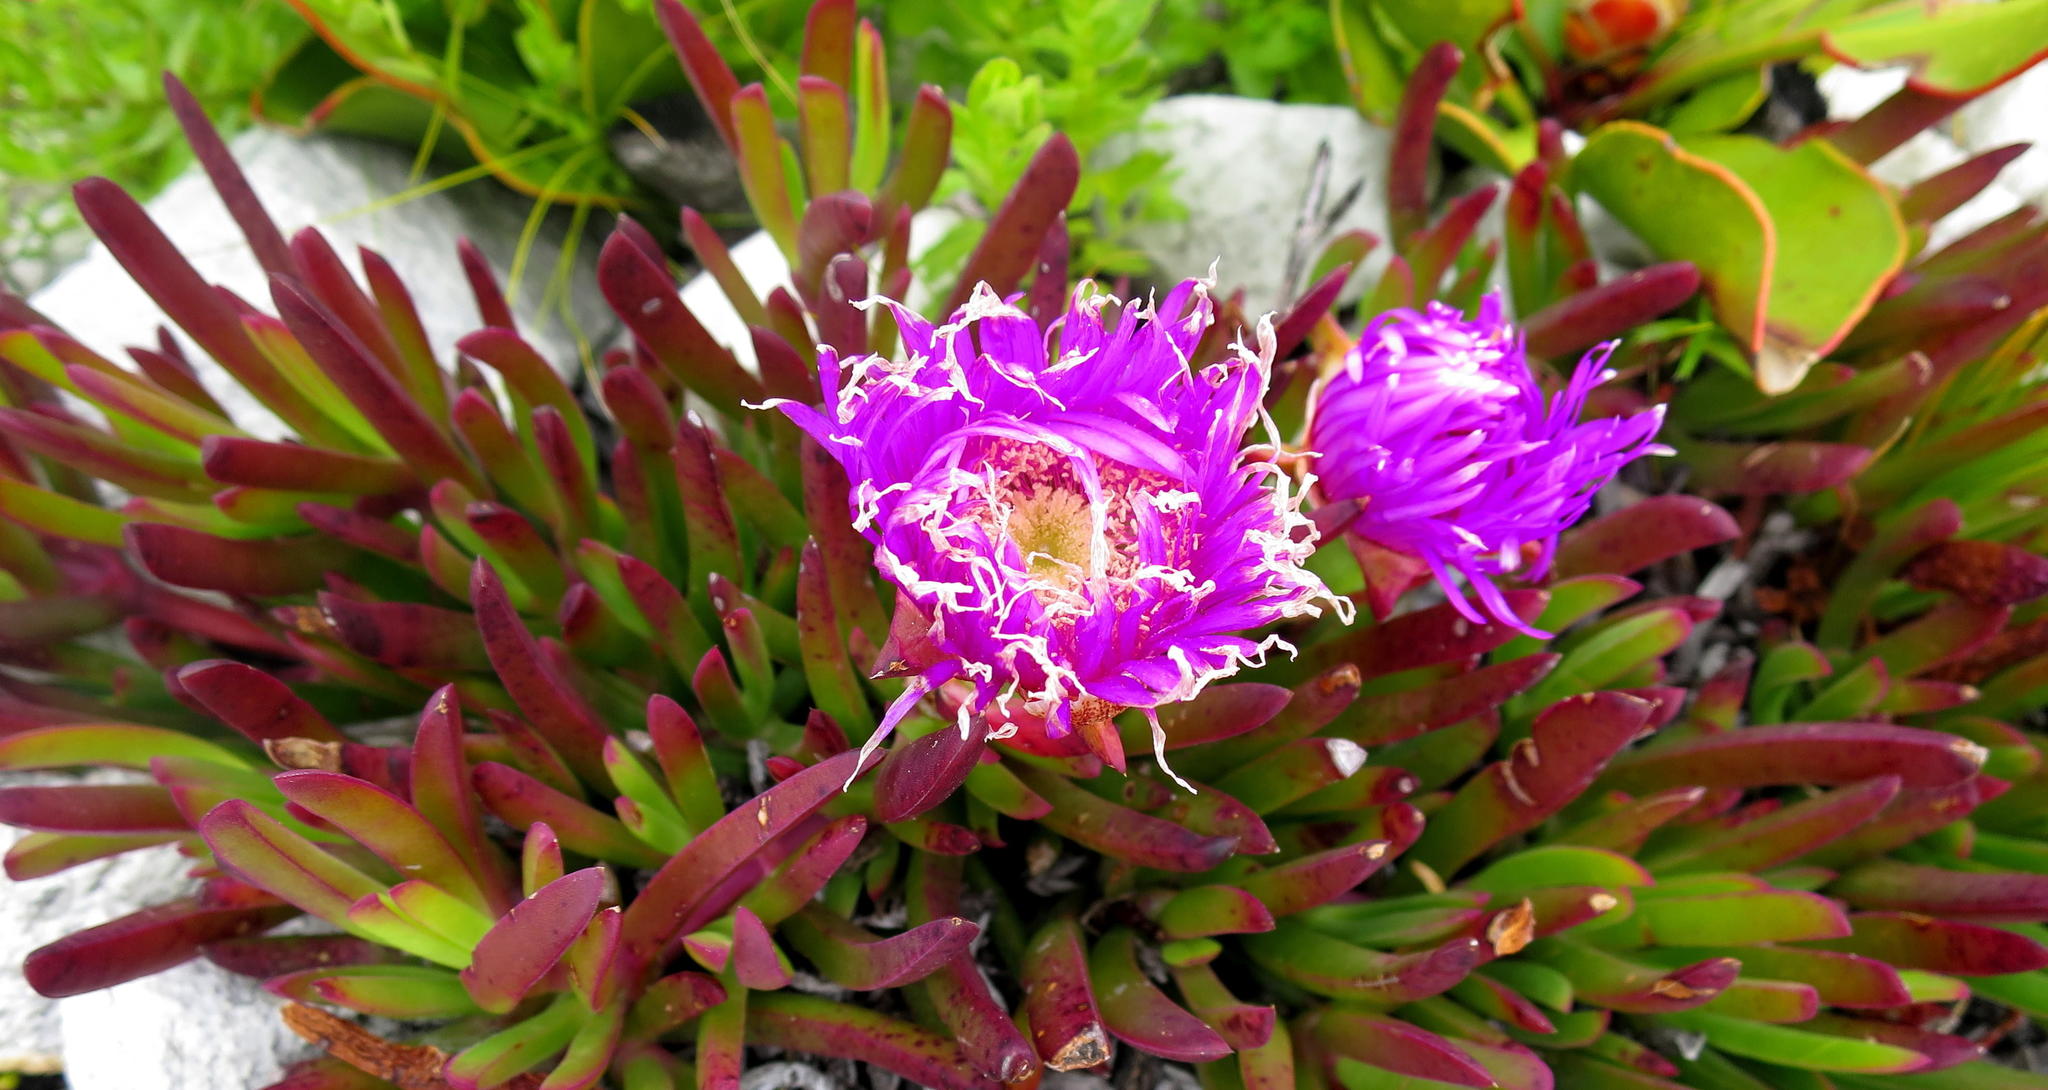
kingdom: Plantae
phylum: Tracheophyta
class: Magnoliopsida
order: Caryophyllales
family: Aizoaceae
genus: Carpobrotus
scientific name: Carpobrotus acinaciformis
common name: Sally-my-handsome
